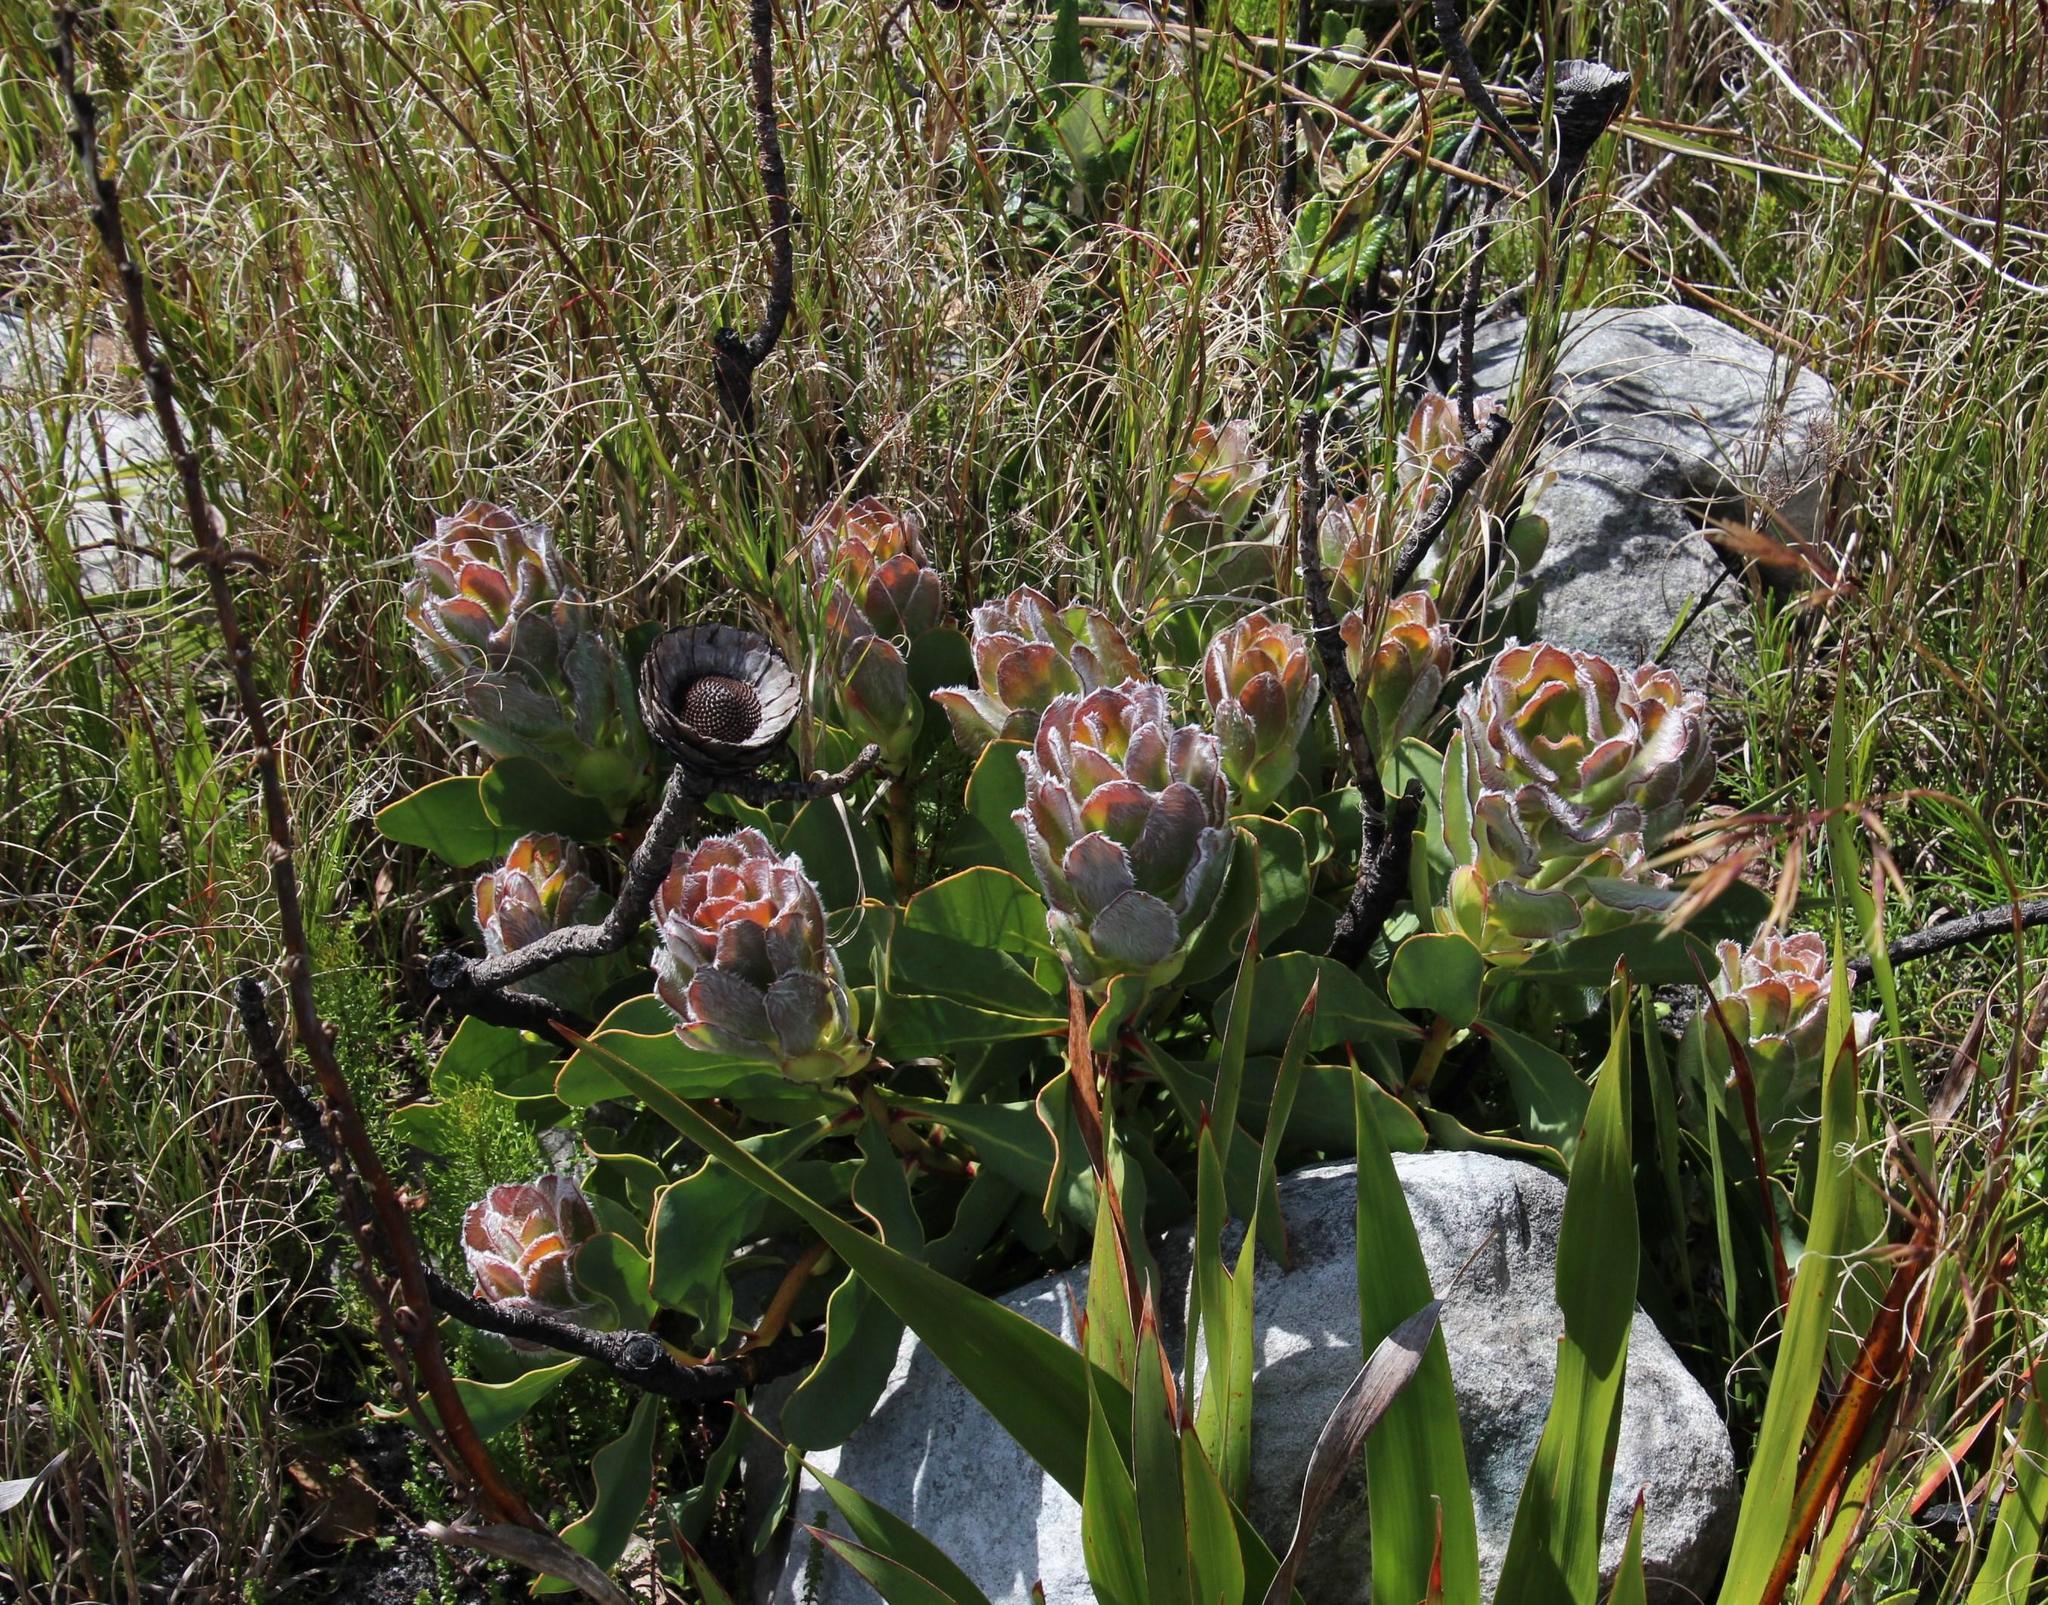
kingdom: Plantae
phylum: Tracheophyta
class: Magnoliopsida
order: Proteales
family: Proteaceae
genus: Protea
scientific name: Protea speciosa
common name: Brown-beard sugarbush
